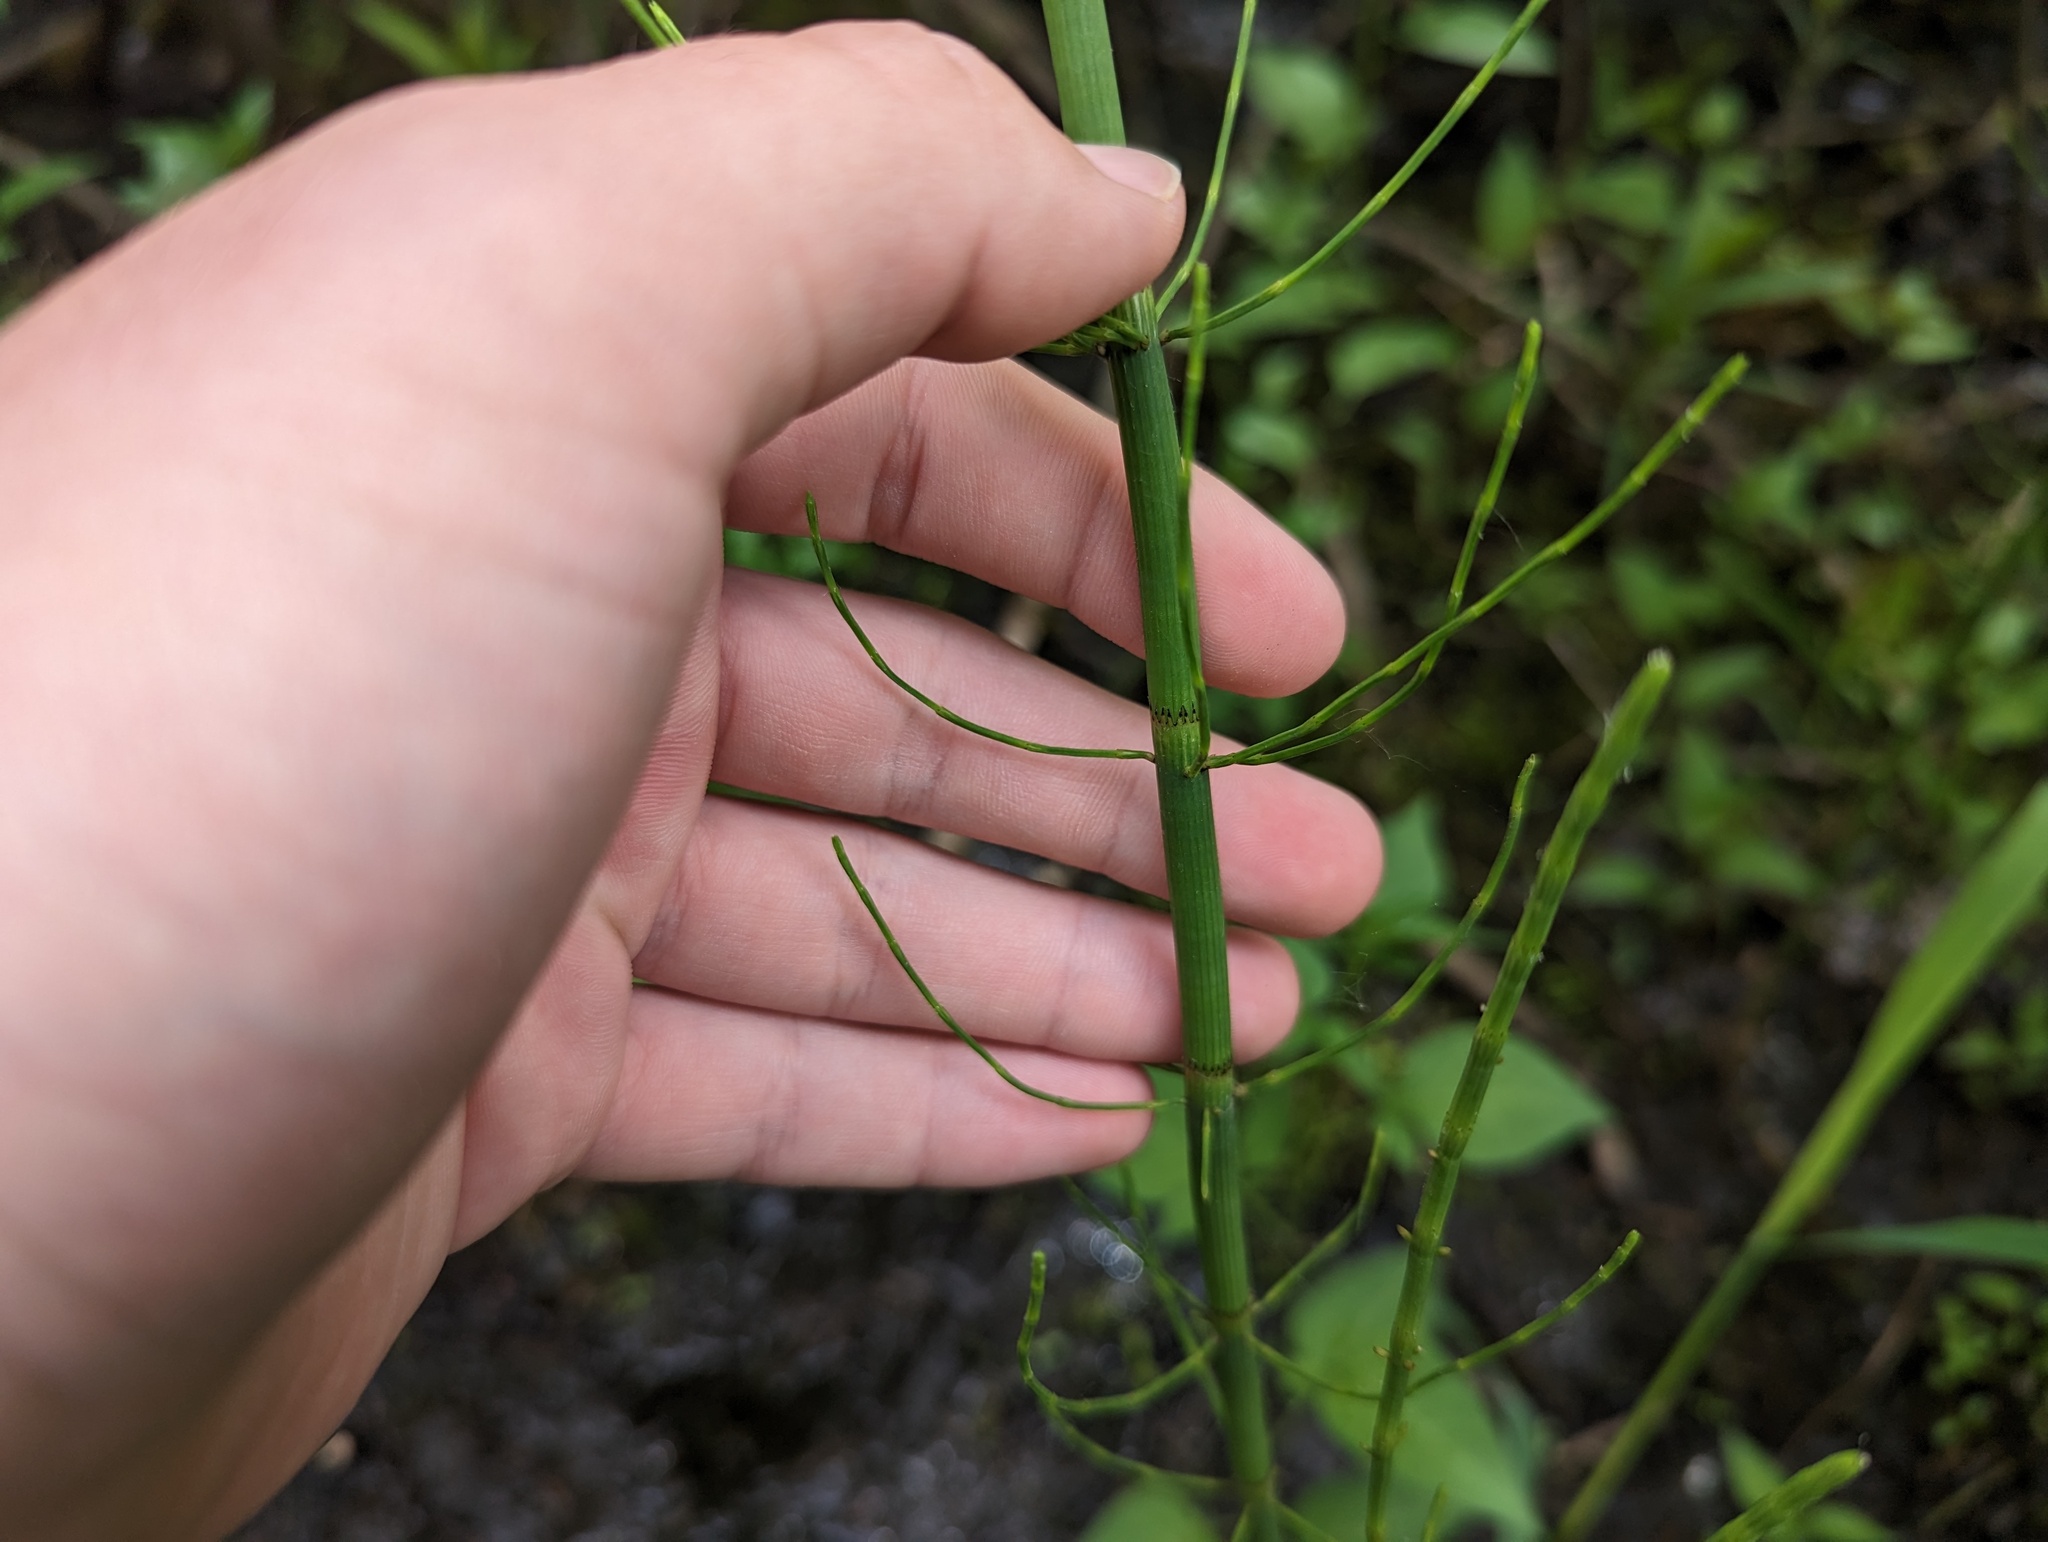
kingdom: Plantae
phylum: Tracheophyta
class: Polypodiopsida
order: Equisetales
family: Equisetaceae
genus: Equisetum
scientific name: Equisetum fluviatile
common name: Water horsetail
